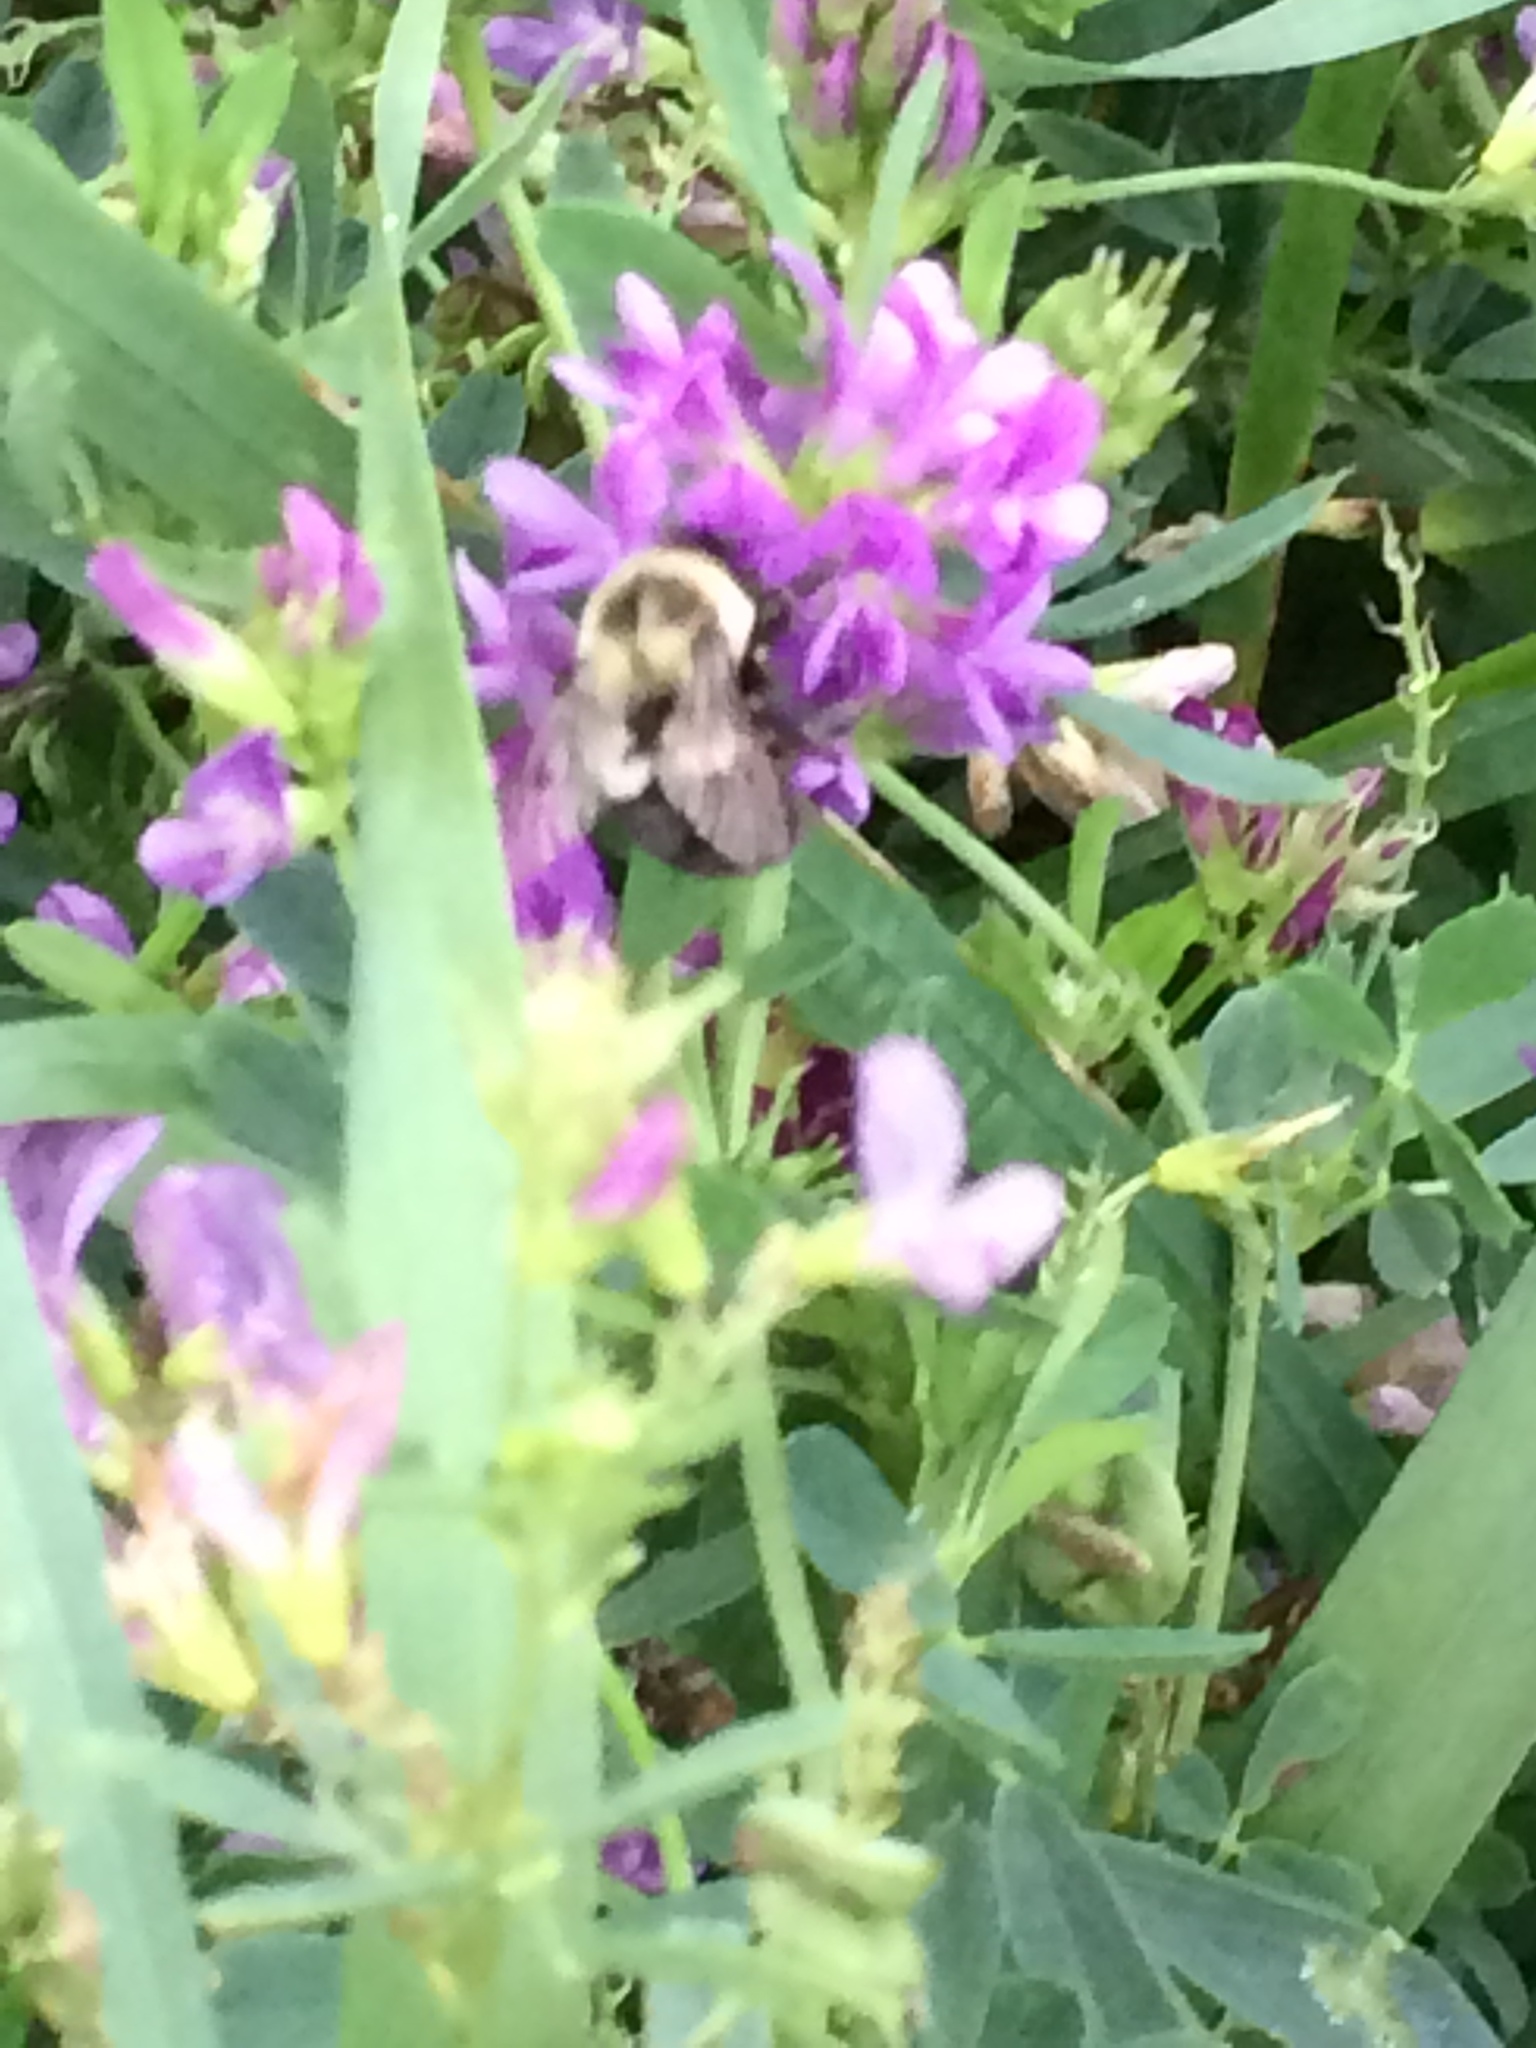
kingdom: Animalia
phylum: Arthropoda
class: Insecta
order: Hymenoptera
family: Apidae
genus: Bombus
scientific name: Bombus impatiens
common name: Common eastern bumble bee
